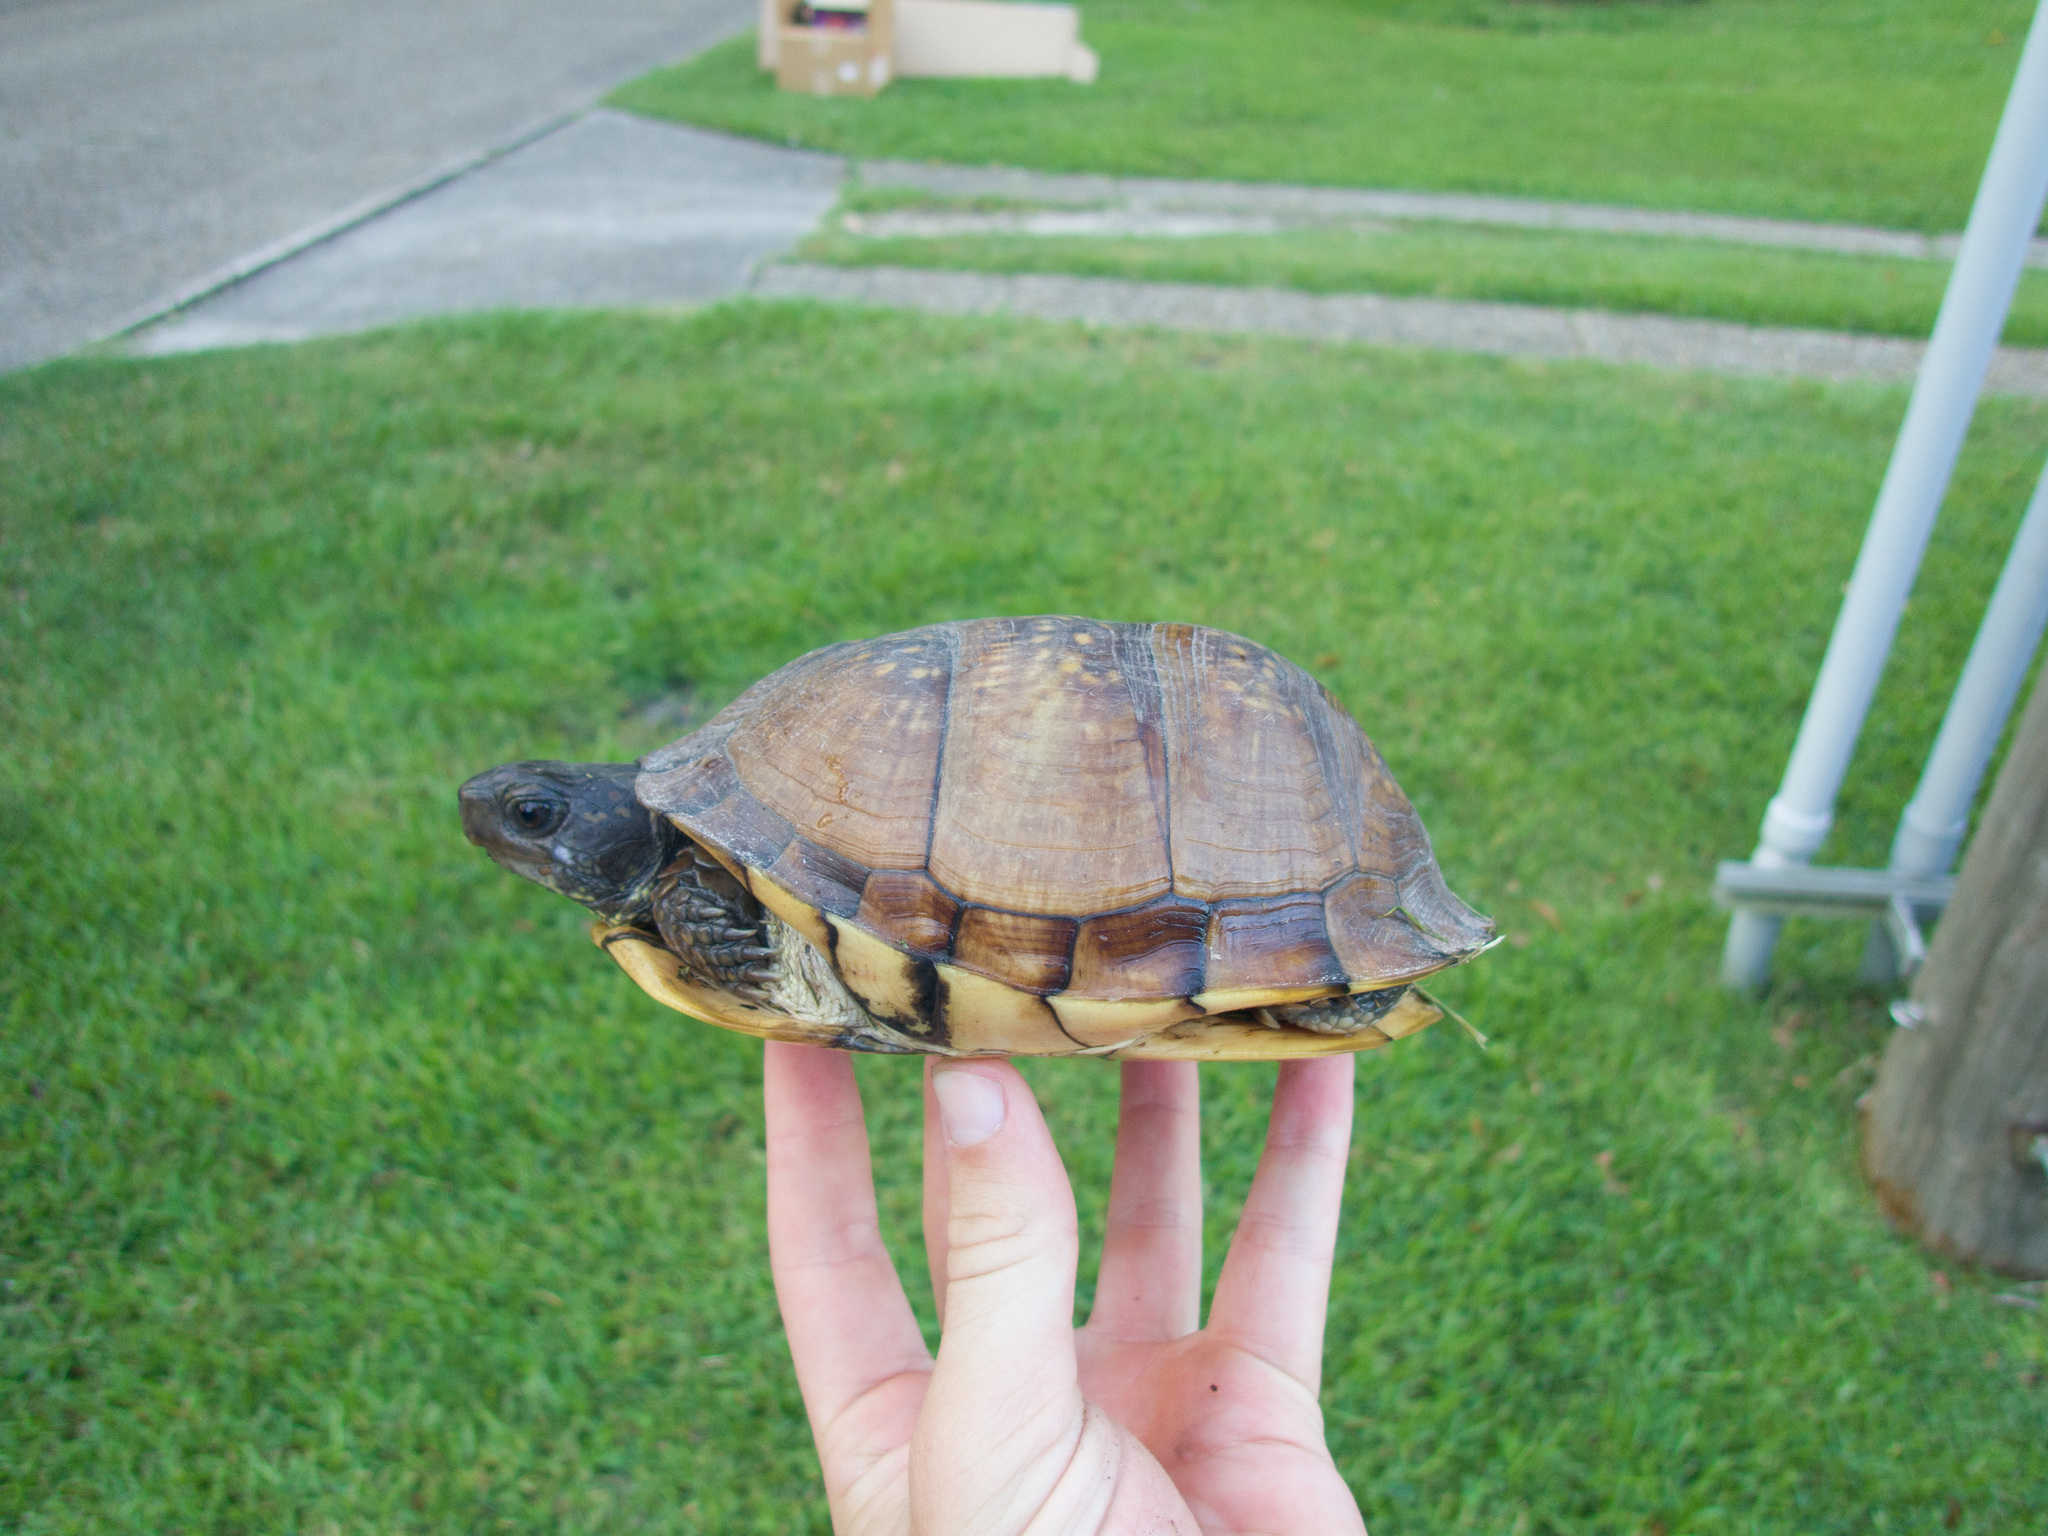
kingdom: Animalia
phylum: Chordata
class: Testudines
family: Emydidae
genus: Terrapene
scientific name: Terrapene carolina
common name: Common box turtle
